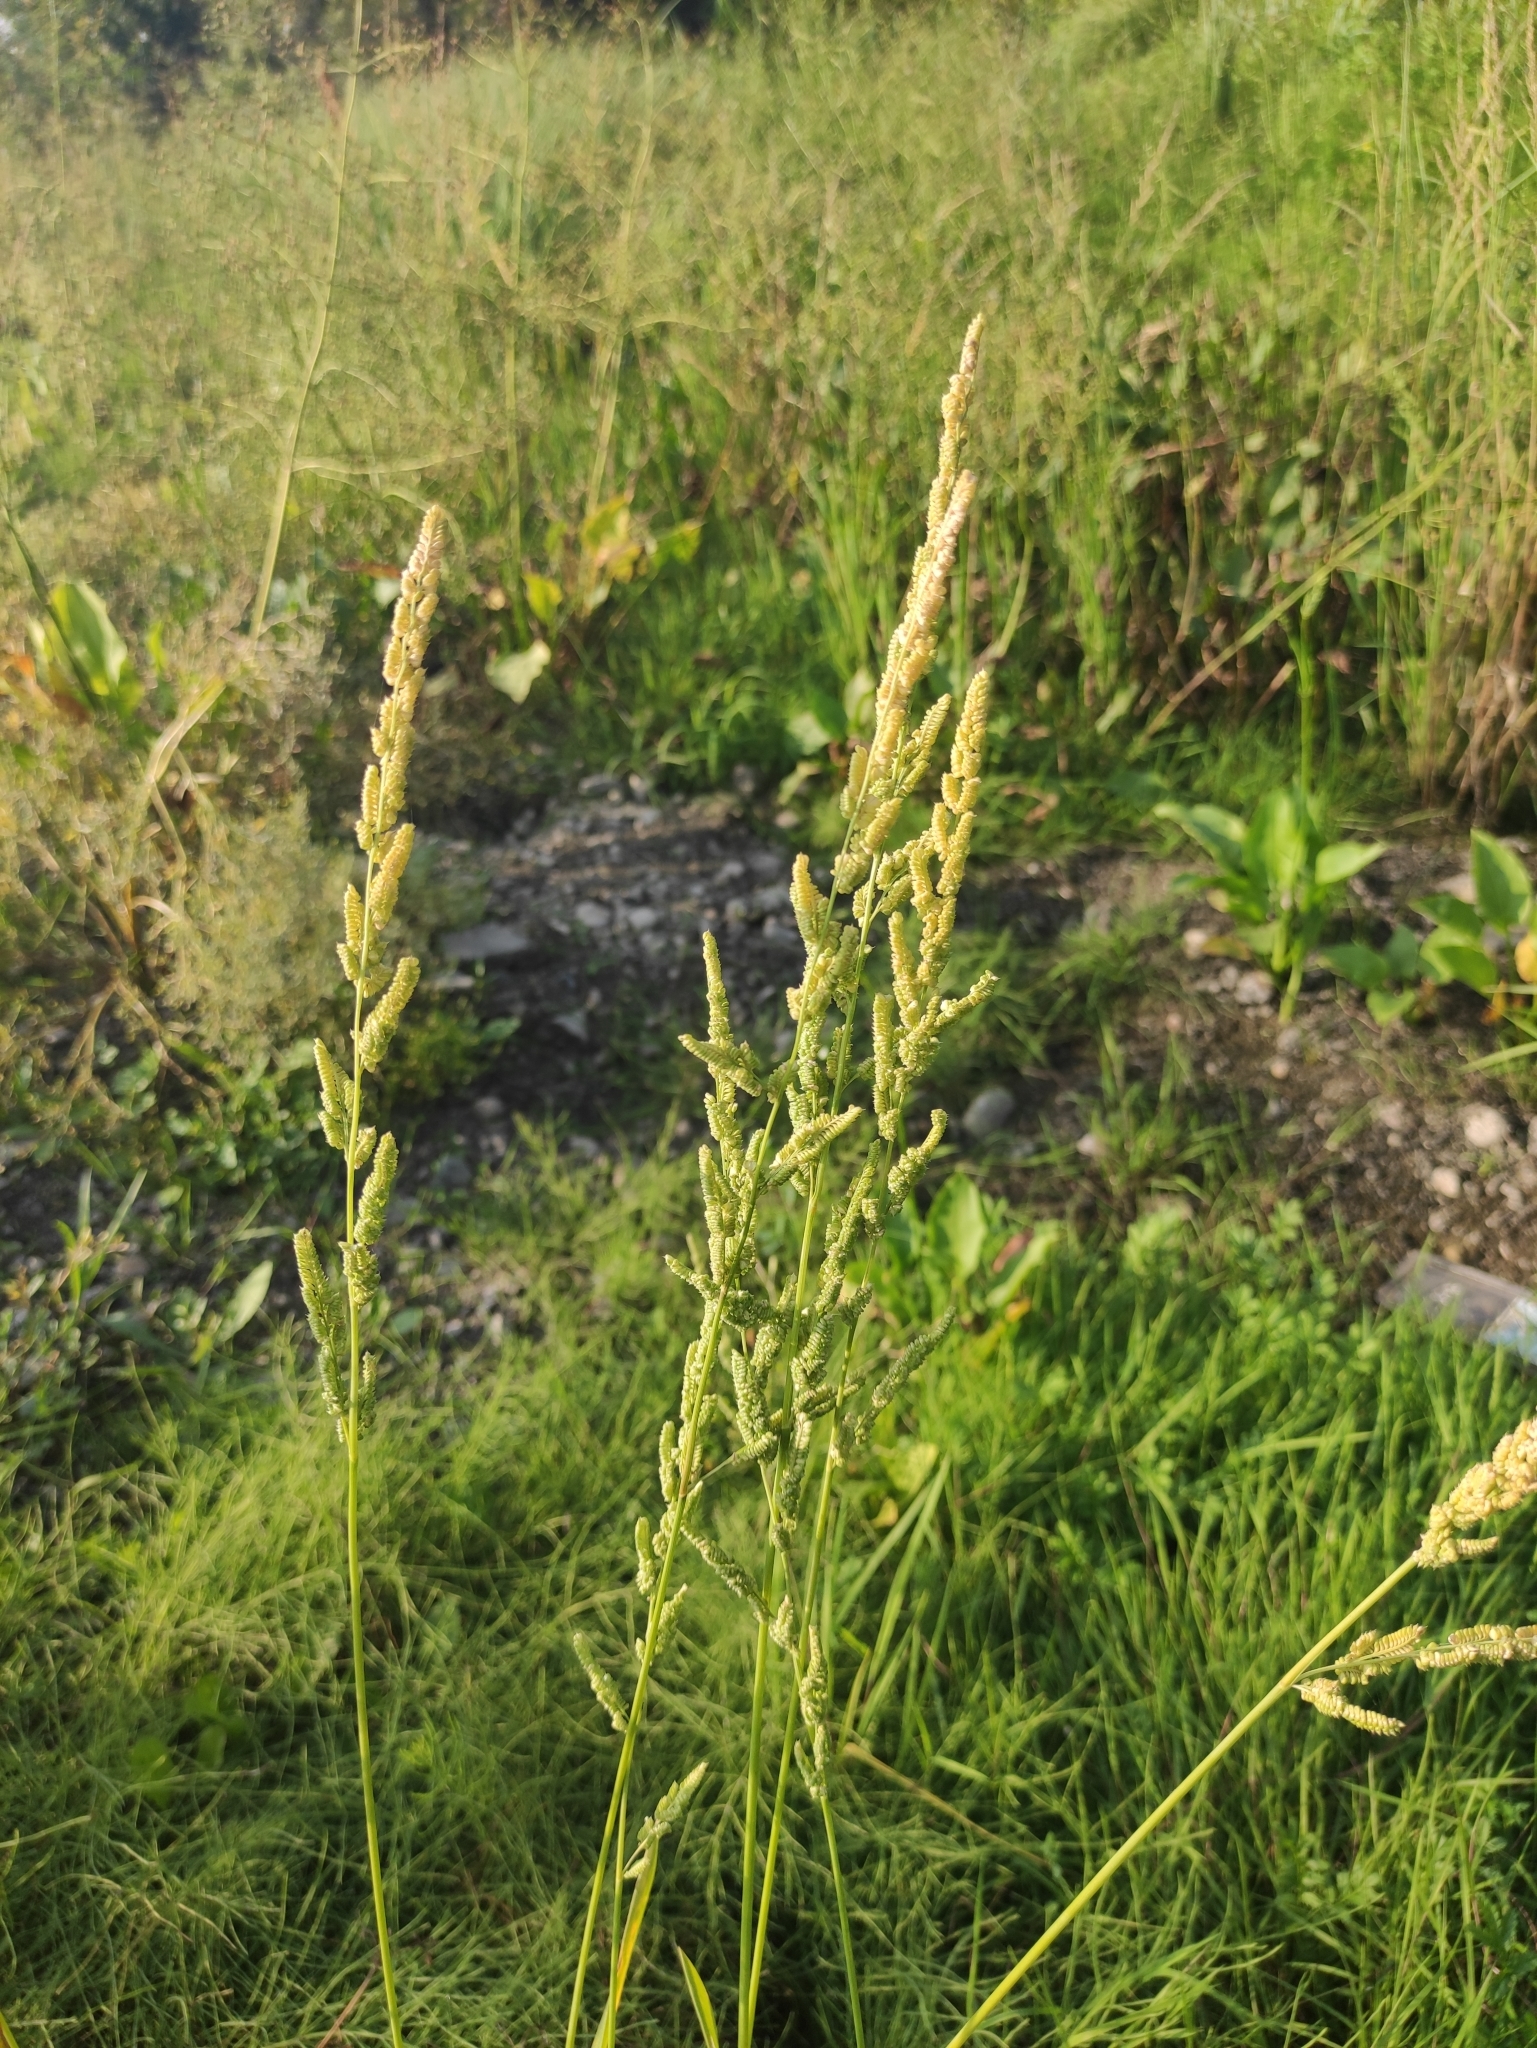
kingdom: Plantae
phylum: Tracheophyta
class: Liliopsida
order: Poales
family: Poaceae
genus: Beckmannia
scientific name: Beckmannia syzigachne
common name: American slough-grass
